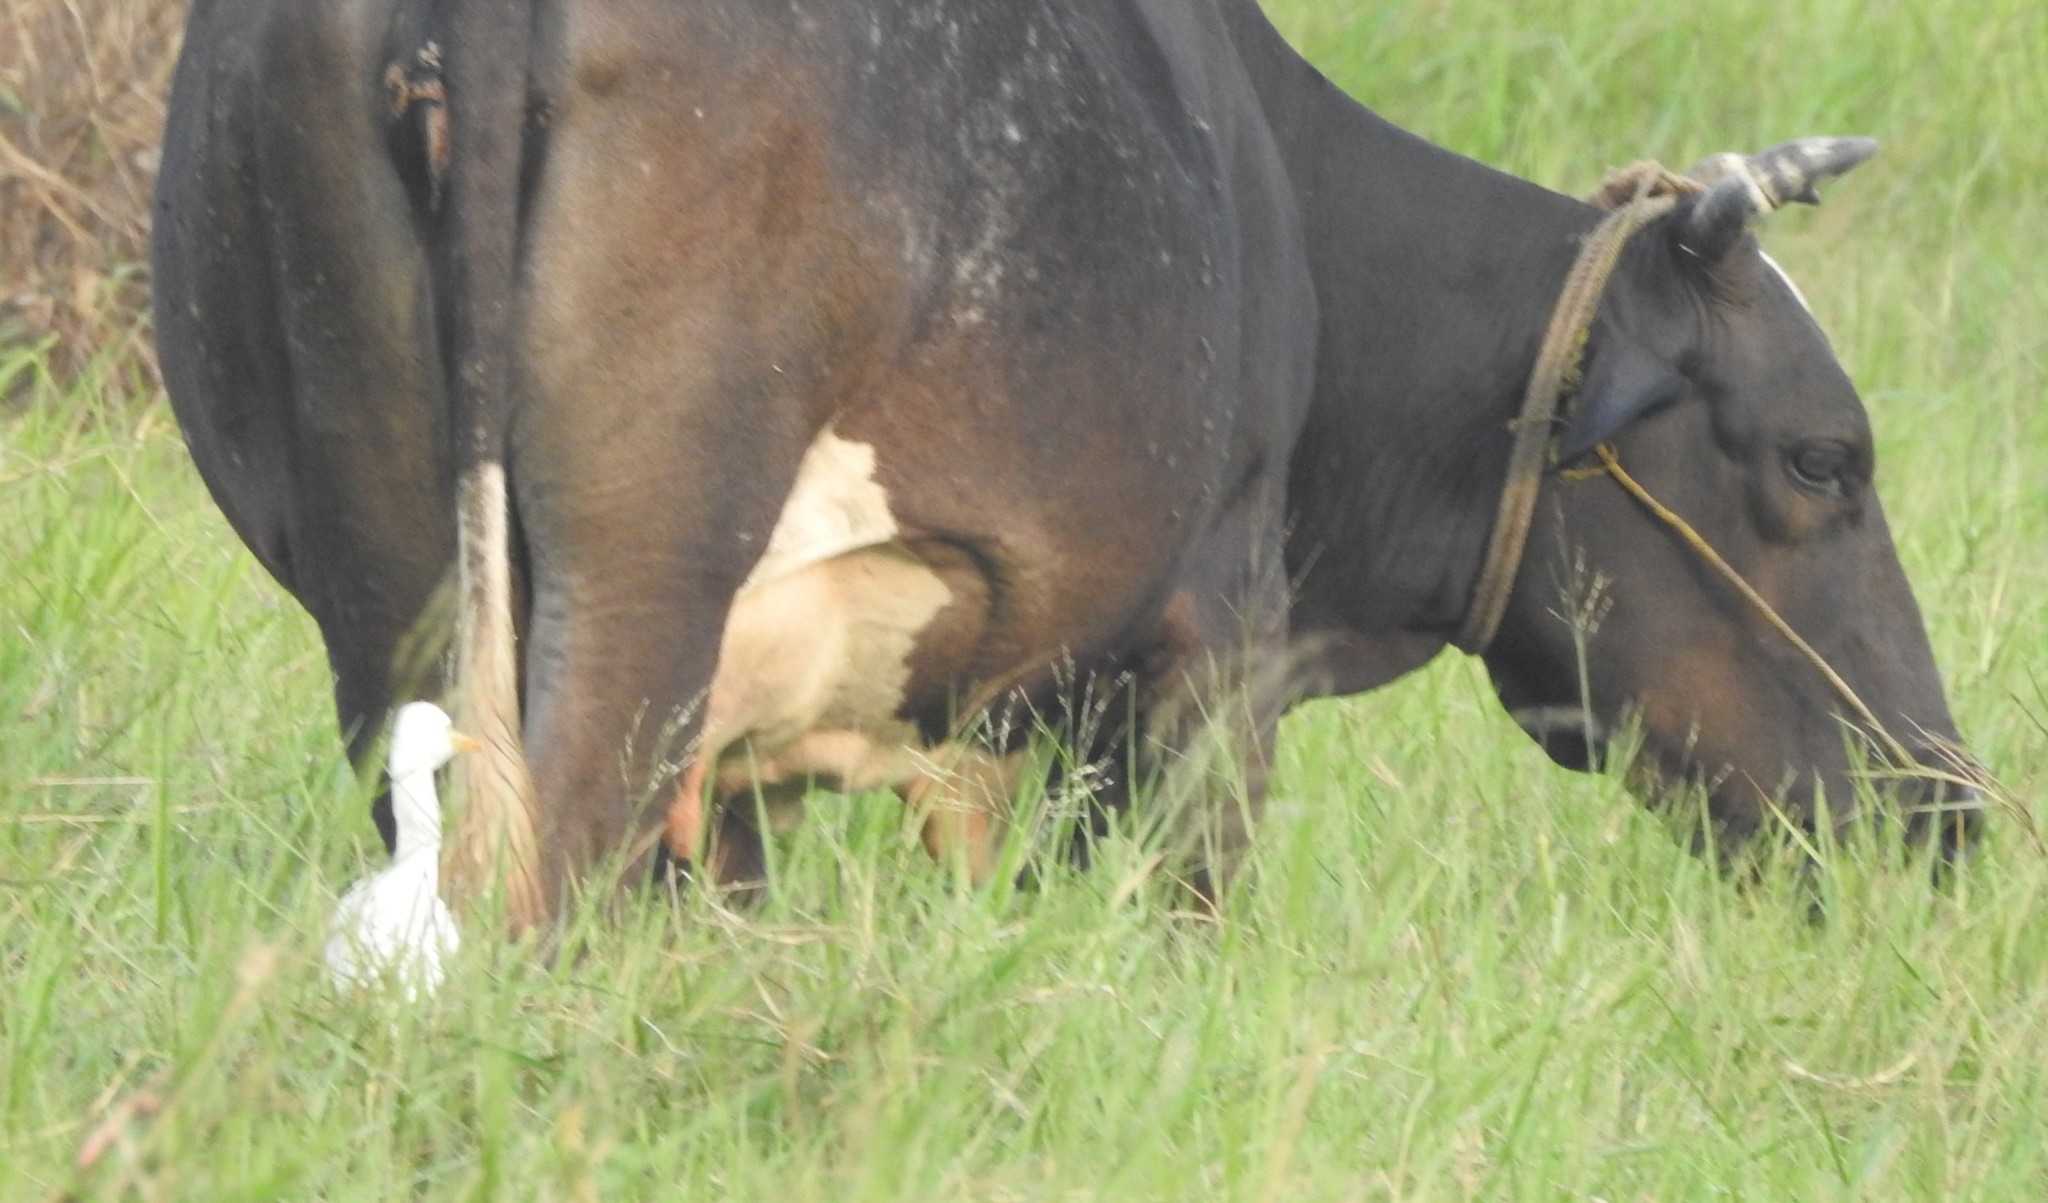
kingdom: Animalia
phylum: Chordata
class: Aves
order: Pelecaniformes
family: Ardeidae
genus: Bubulcus
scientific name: Bubulcus coromandus
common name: Eastern cattle egret
